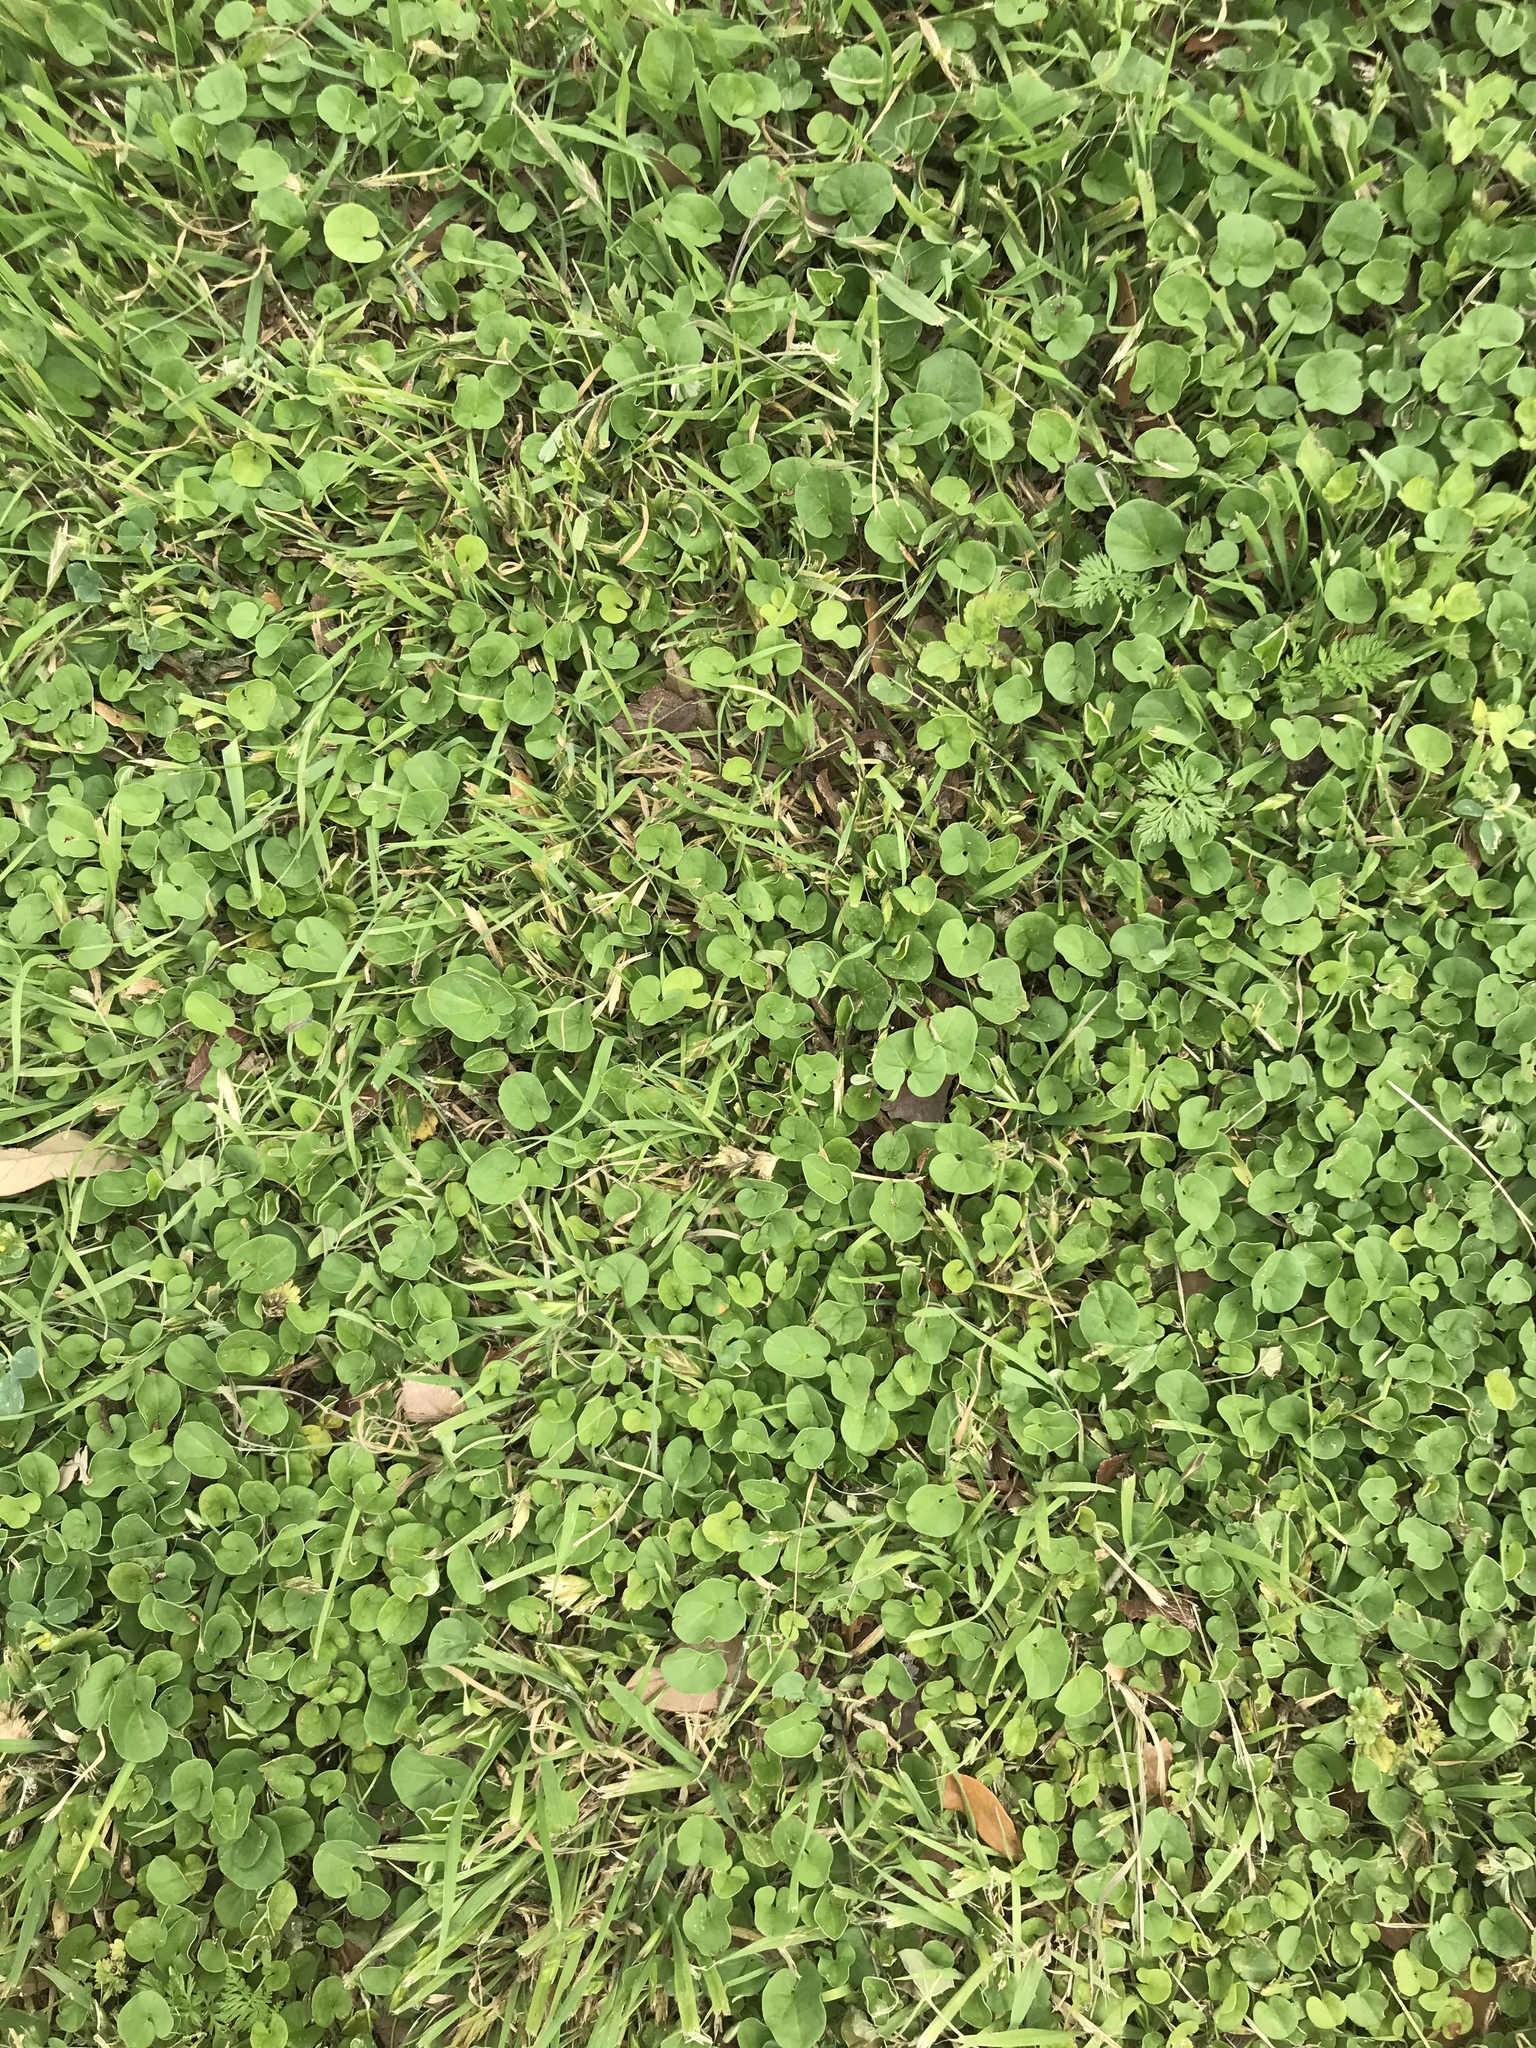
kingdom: Plantae
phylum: Tracheophyta
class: Magnoliopsida
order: Solanales
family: Convolvulaceae
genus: Dichondra
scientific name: Dichondra carolinensis
